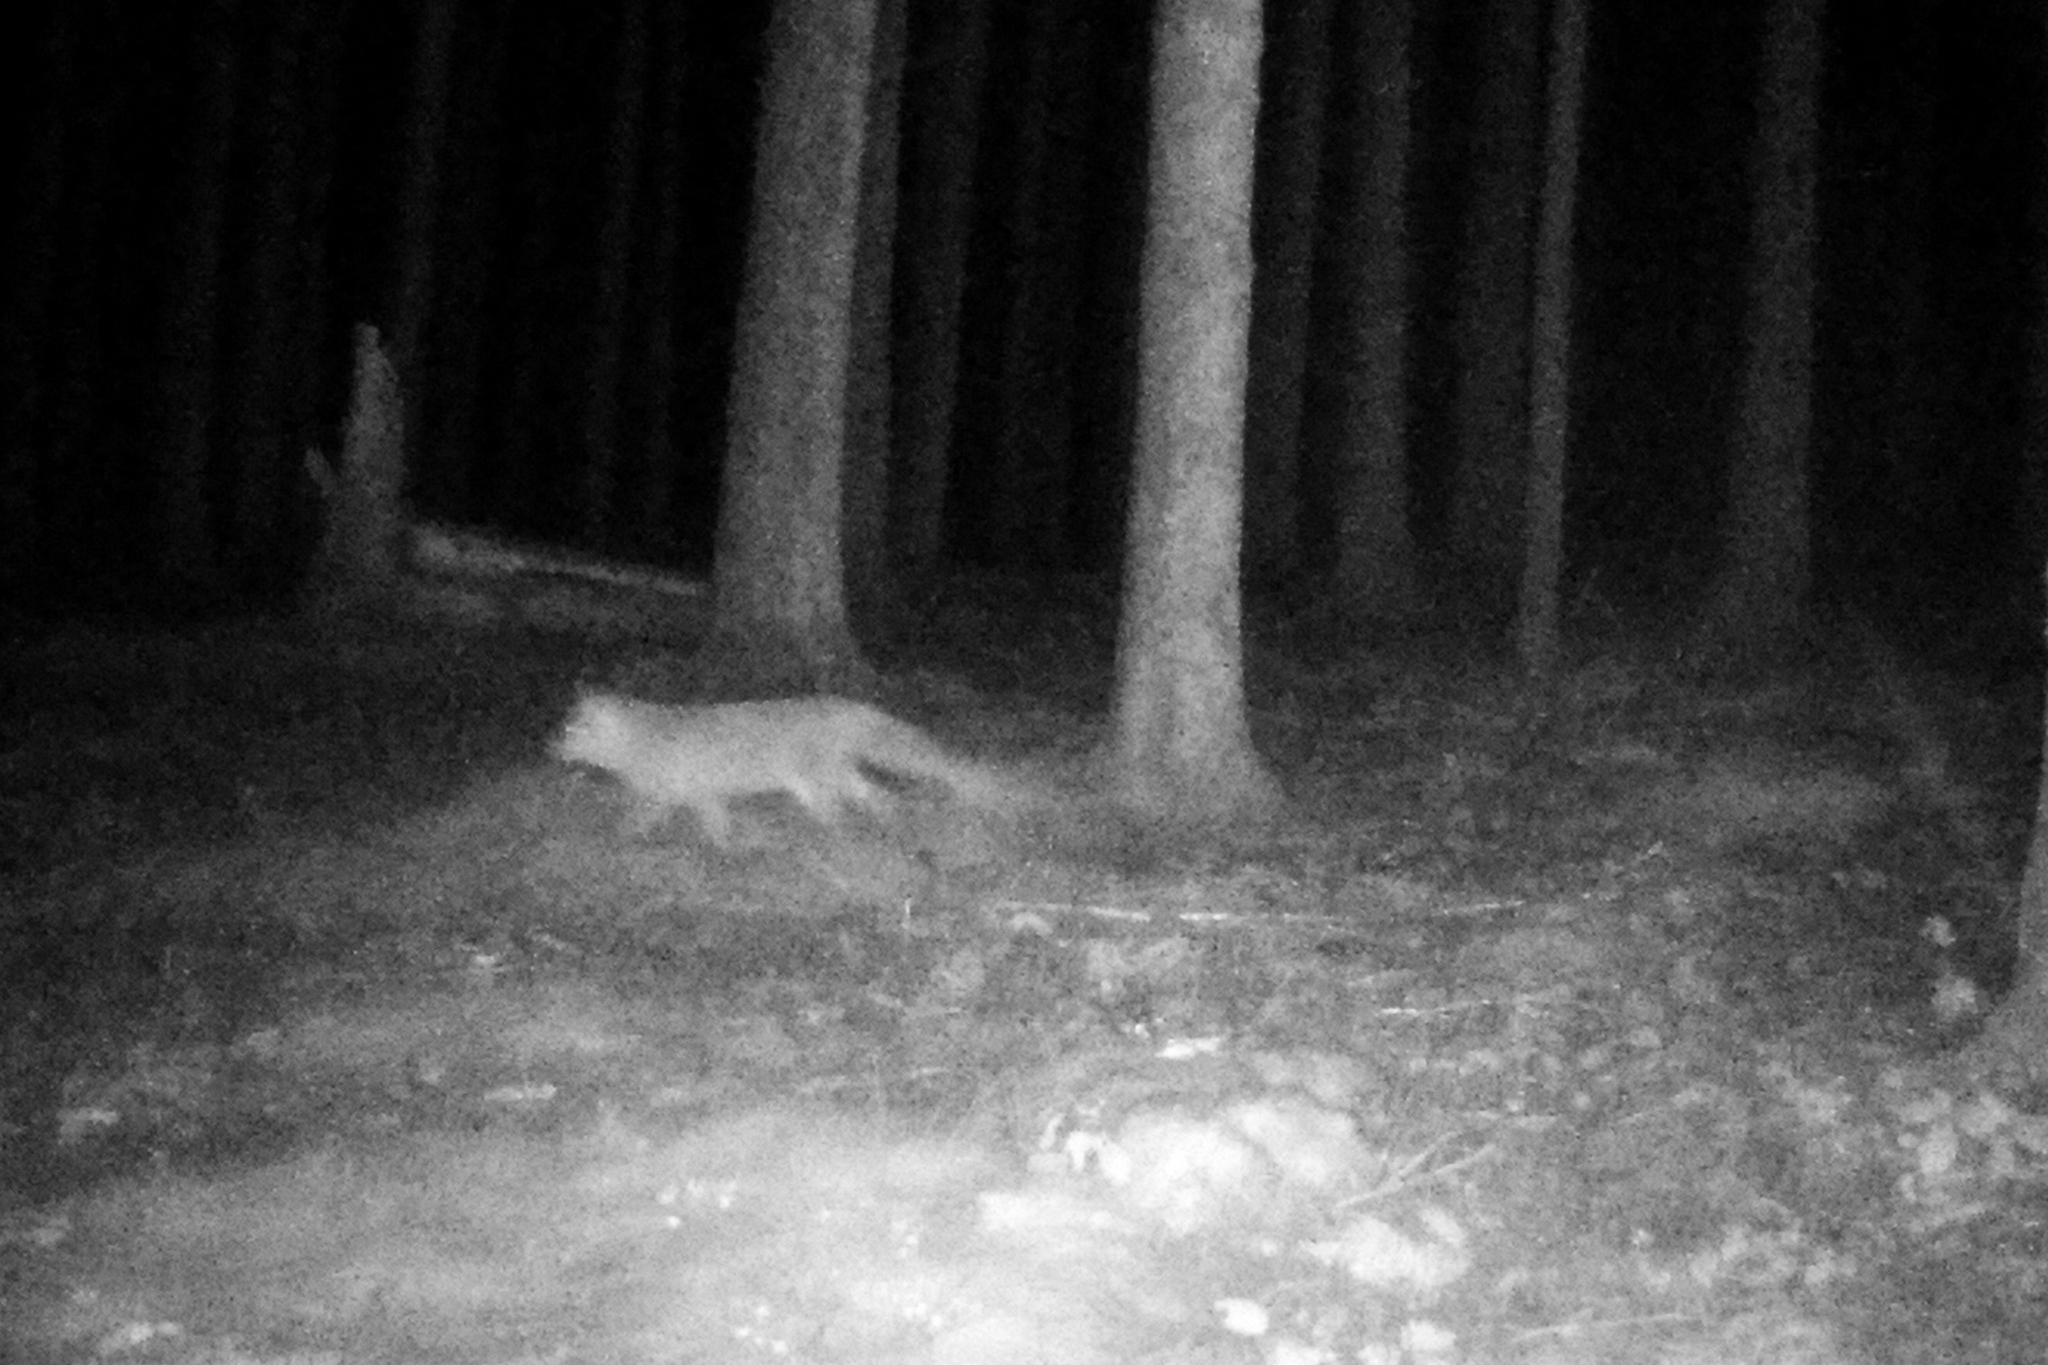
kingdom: Animalia
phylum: Chordata
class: Mammalia
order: Carnivora
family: Canidae
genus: Vulpes
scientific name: Vulpes vulpes
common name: Red fox
